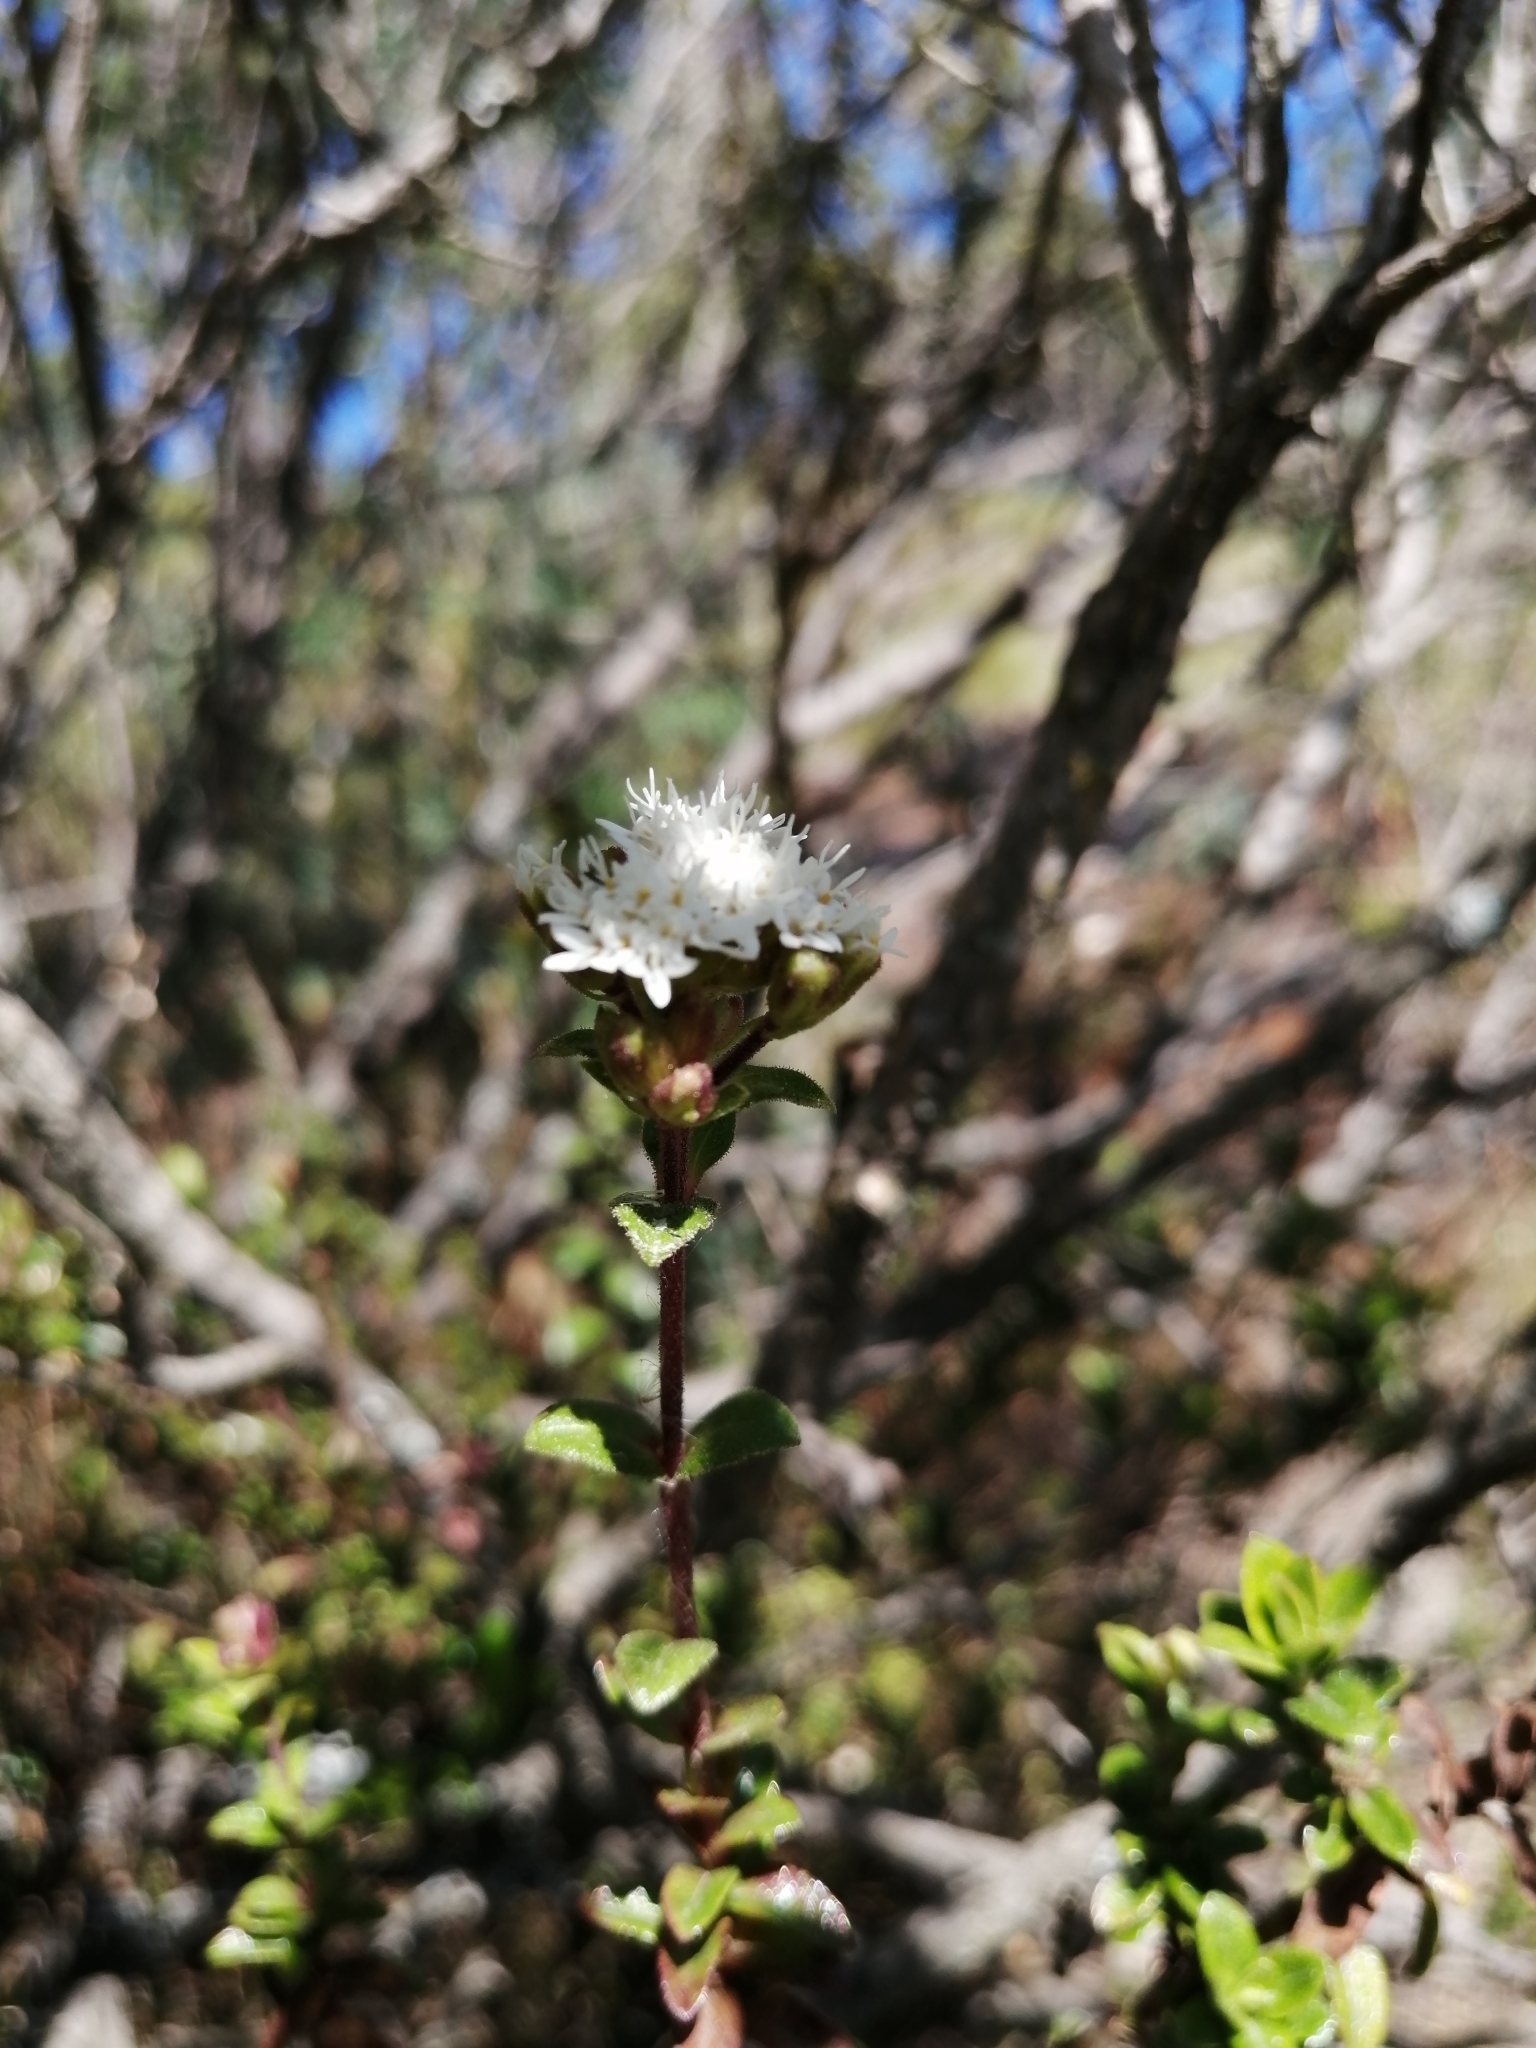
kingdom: Plantae
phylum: Tracheophyta
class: Magnoliopsida
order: Asterales
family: Asteraceae
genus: Baccharis
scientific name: Baccharis conferta
